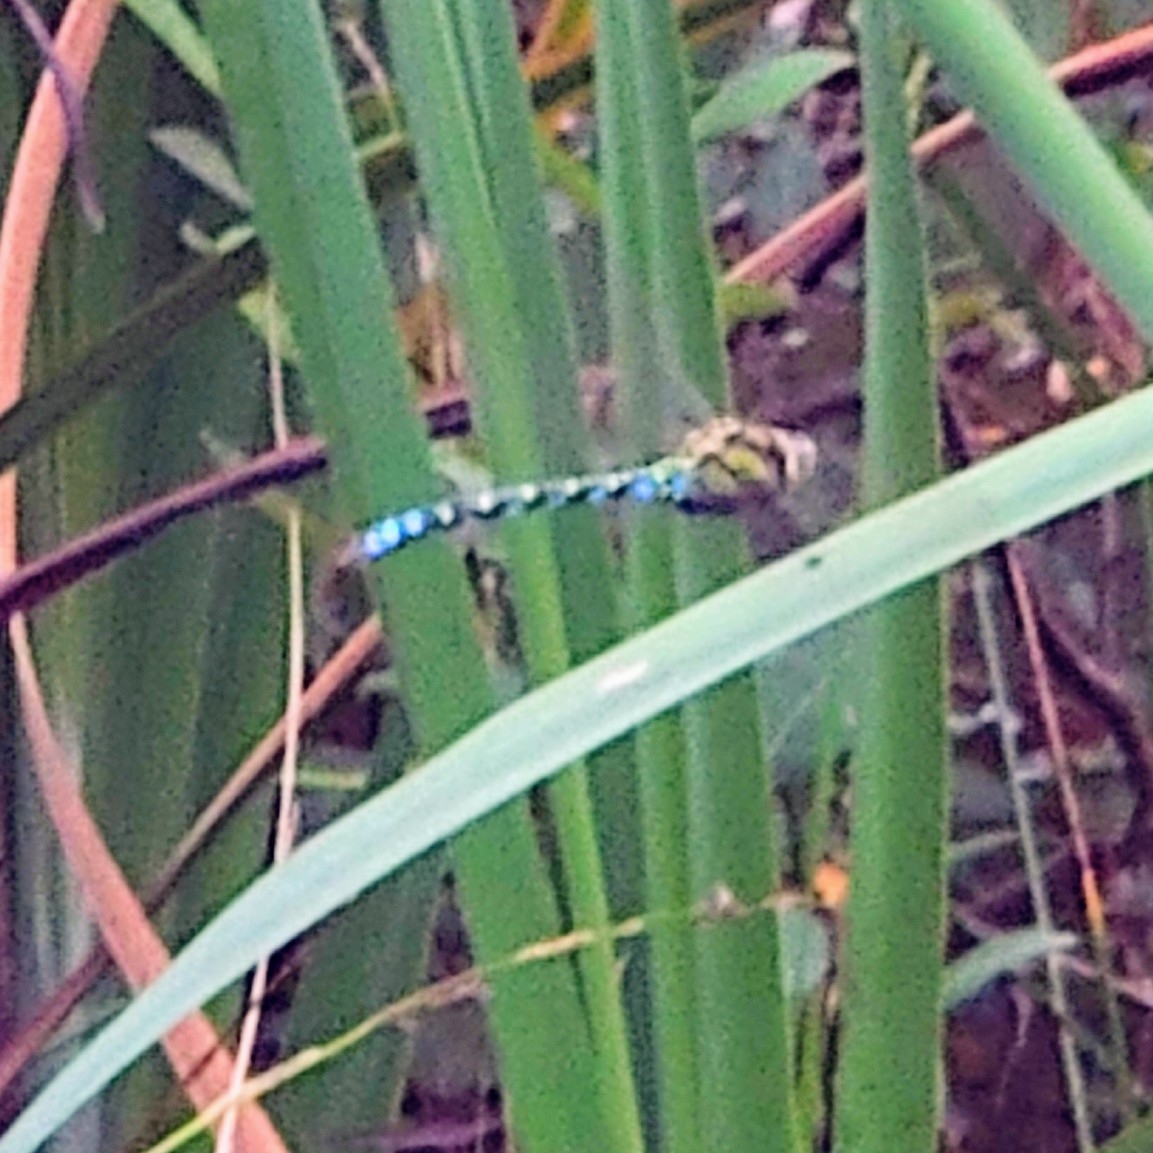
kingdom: Animalia
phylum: Arthropoda
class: Insecta
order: Odonata
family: Aeshnidae
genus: Aeshna
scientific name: Aeshna cyanea
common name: Southern hawker
